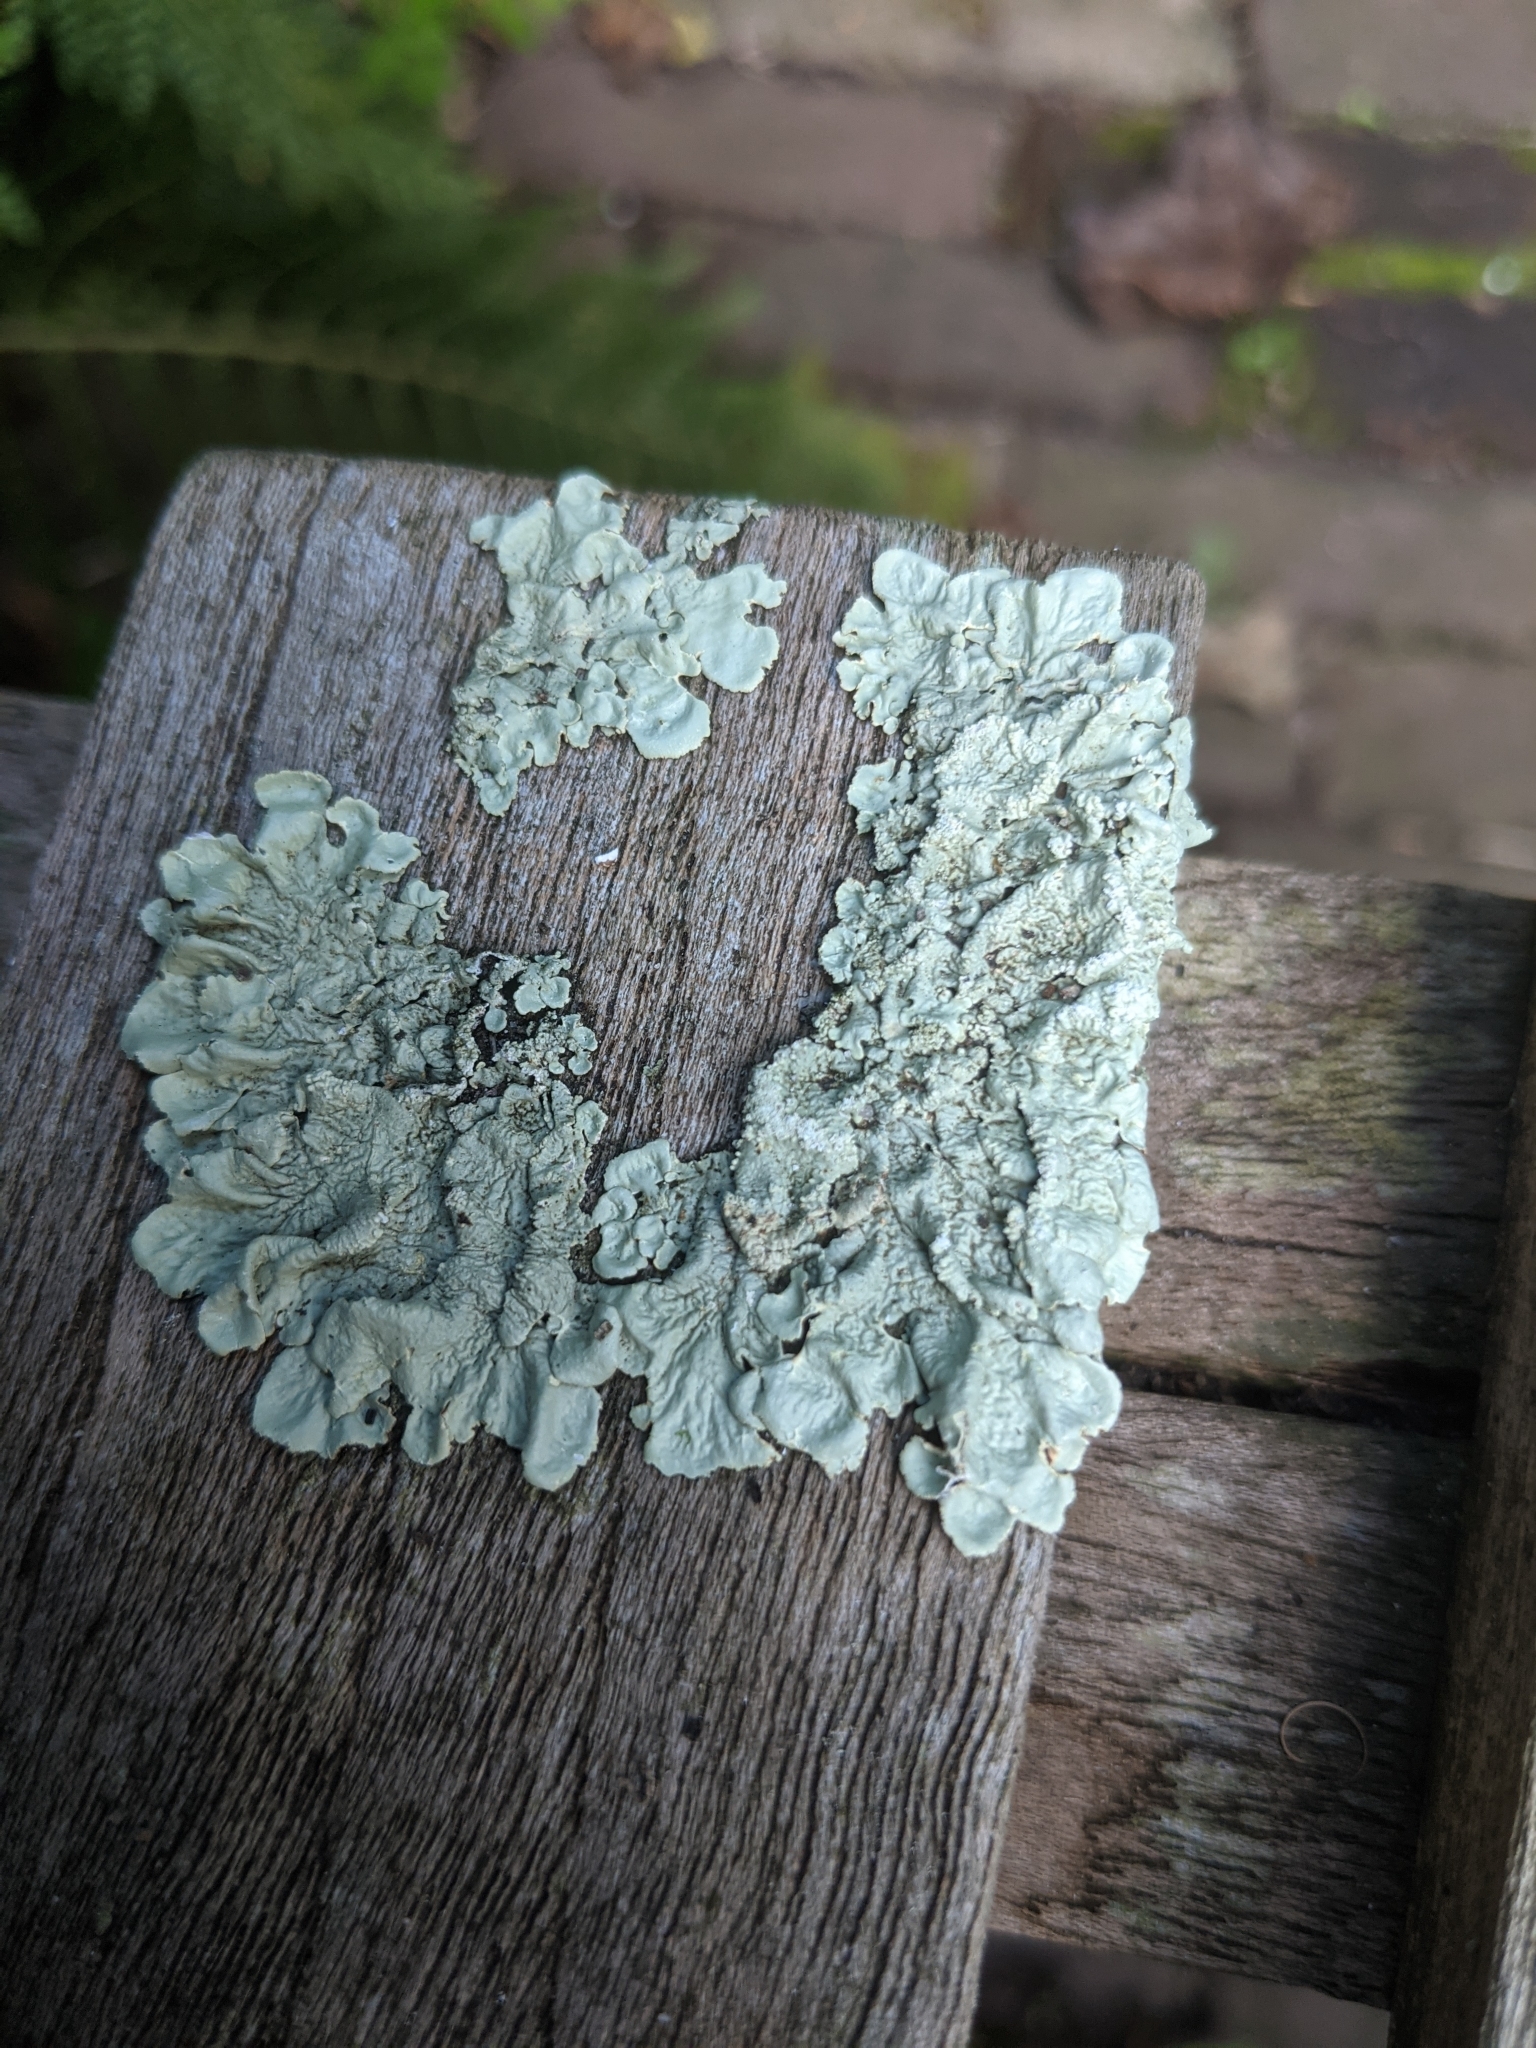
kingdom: Fungi
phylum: Ascomycota
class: Lecanoromycetes
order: Lecanorales
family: Parmeliaceae
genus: Flavoparmelia
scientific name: Flavoparmelia caperata
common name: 40-mile per hour lichen
